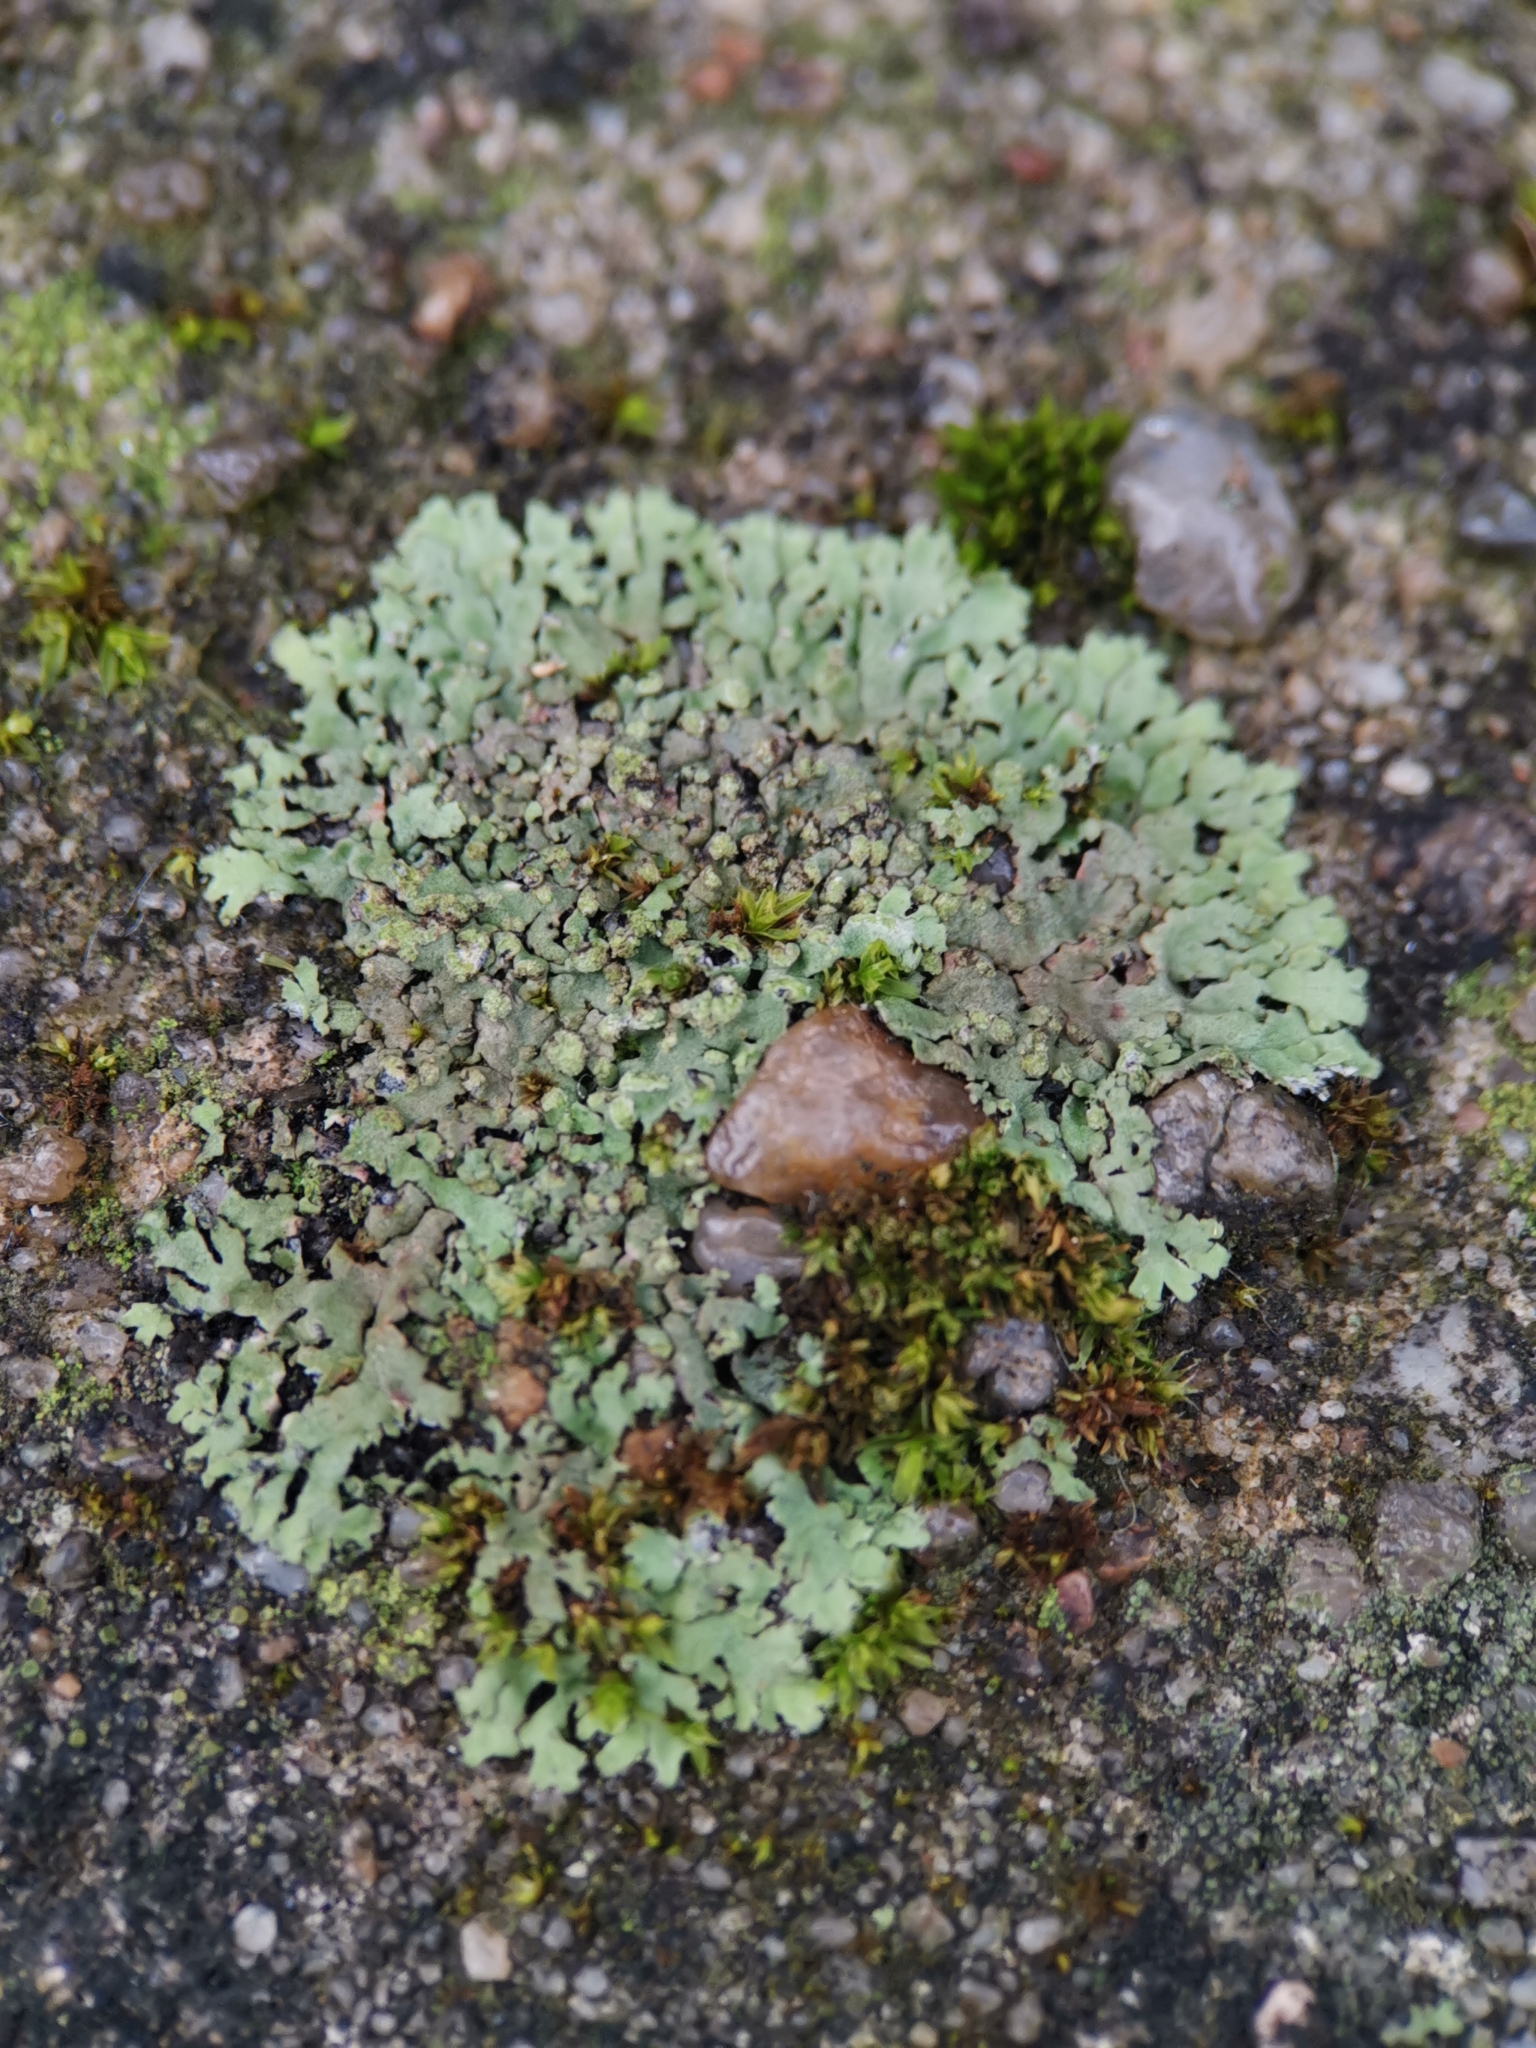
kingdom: Fungi
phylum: Ascomycota
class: Lecanoromycetes
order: Caliciales
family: Physciaceae
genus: Phaeophyscia
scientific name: Phaeophyscia orbicularis
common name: Mealy shadow lichen
